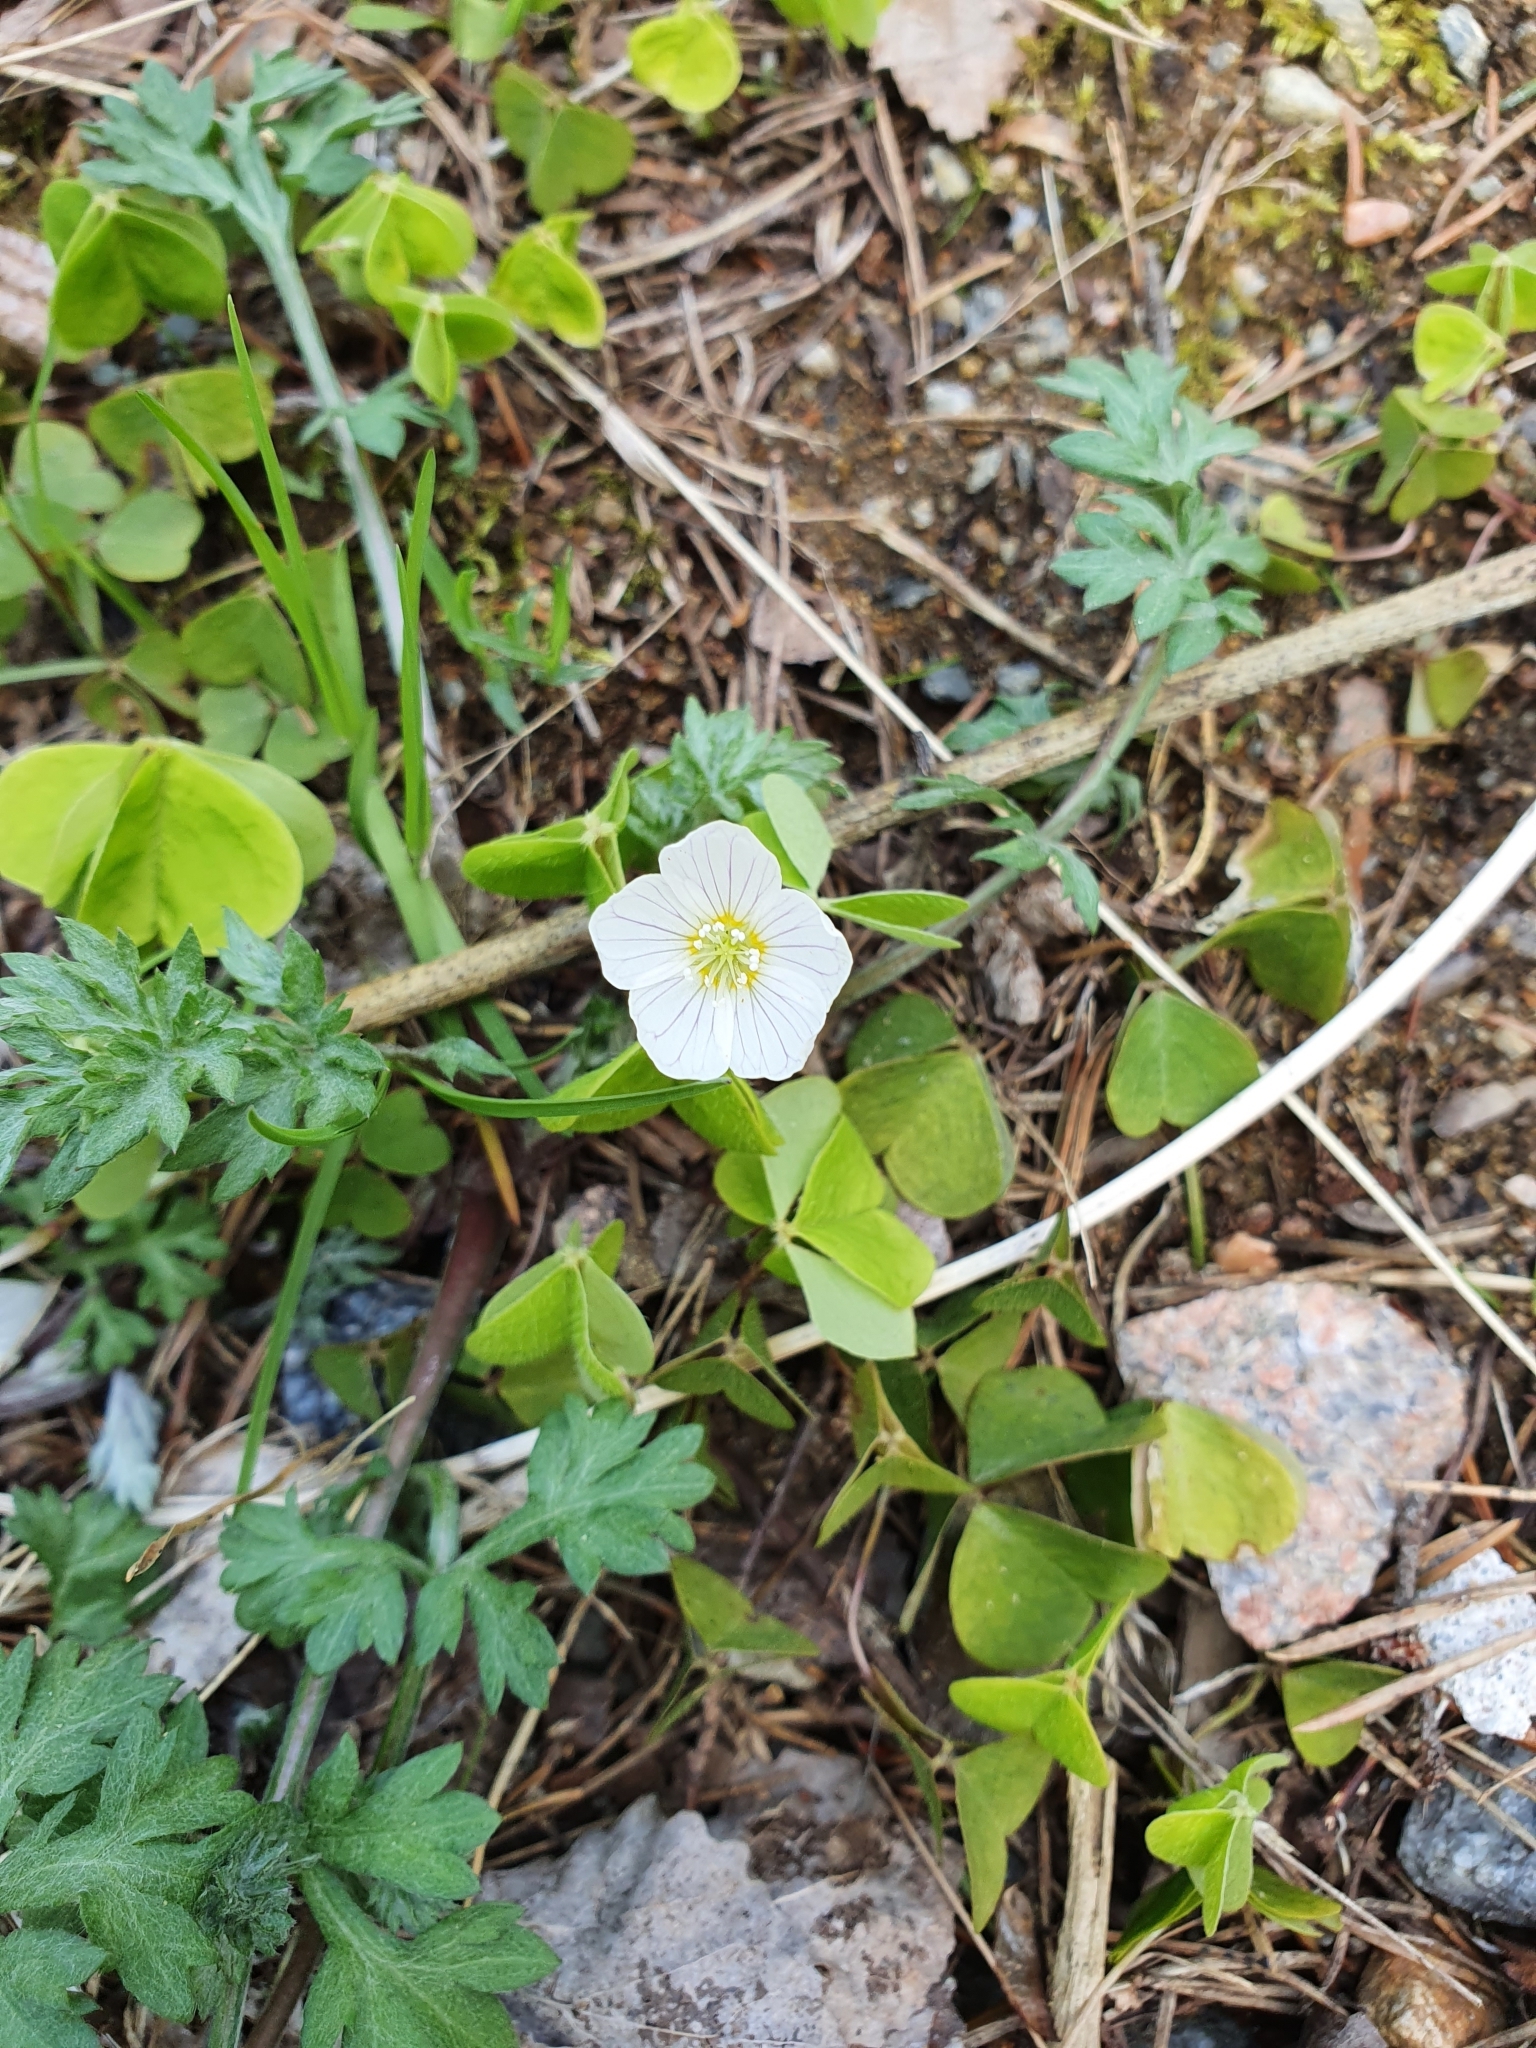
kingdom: Plantae
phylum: Tracheophyta
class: Magnoliopsida
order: Oxalidales
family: Oxalidaceae
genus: Oxalis
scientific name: Oxalis acetosella
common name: Wood-sorrel
